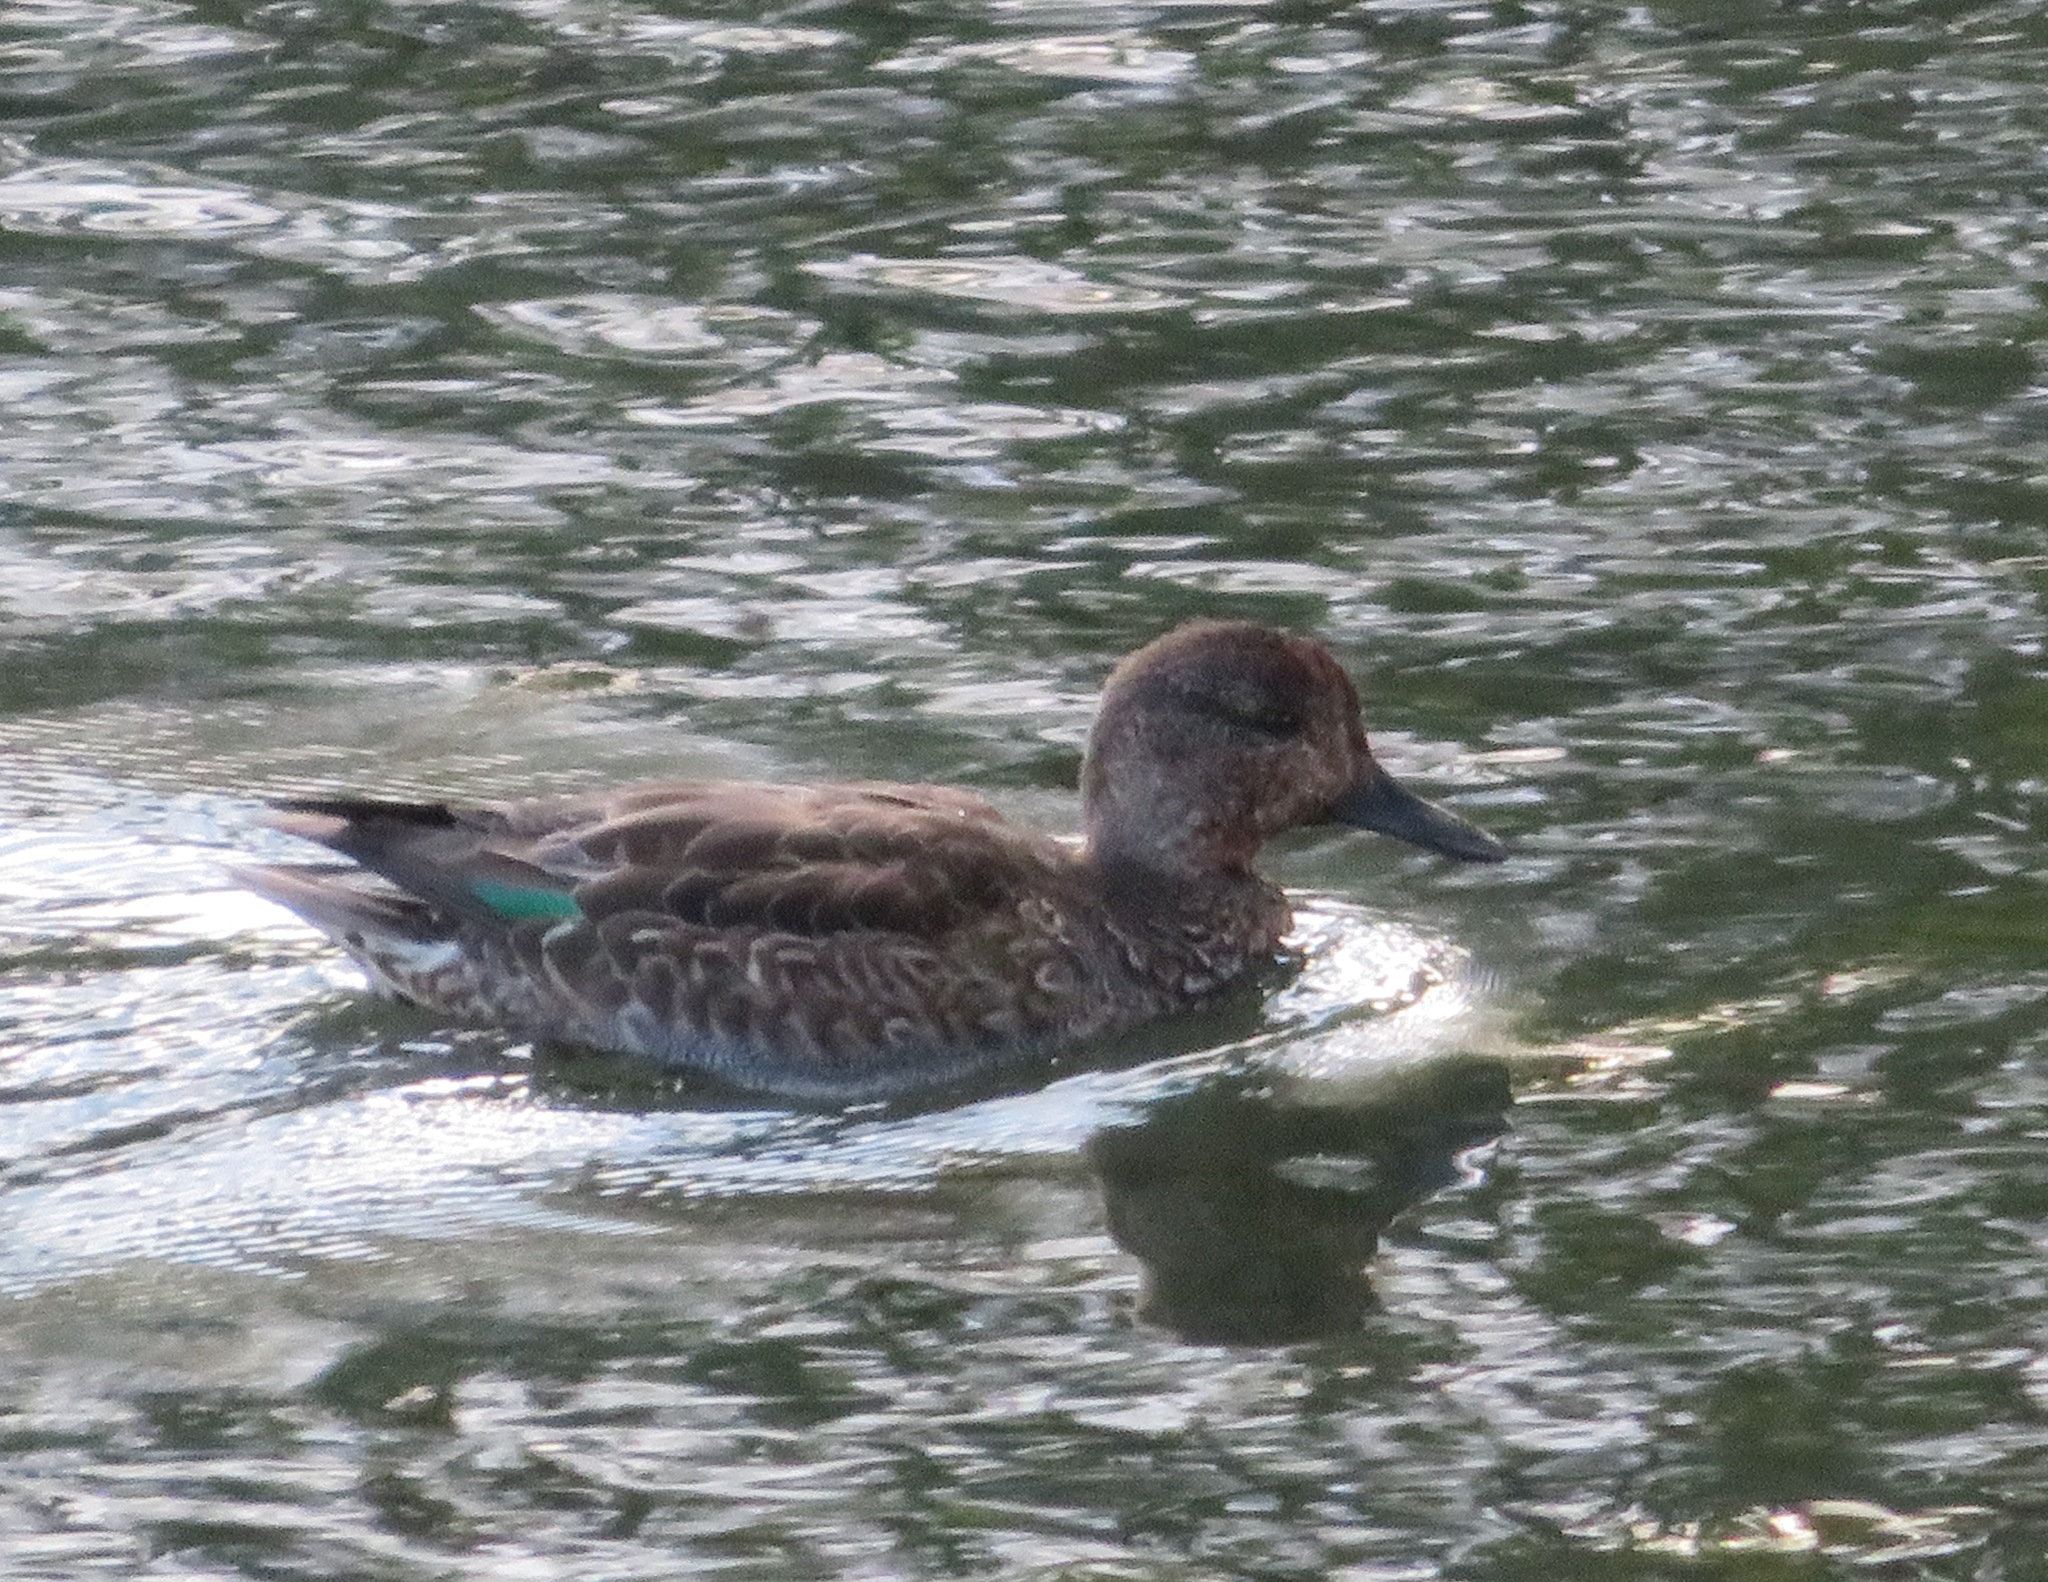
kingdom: Animalia
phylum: Chordata
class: Aves
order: Anseriformes
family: Anatidae
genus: Anas
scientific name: Anas crecca
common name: Eurasian teal
